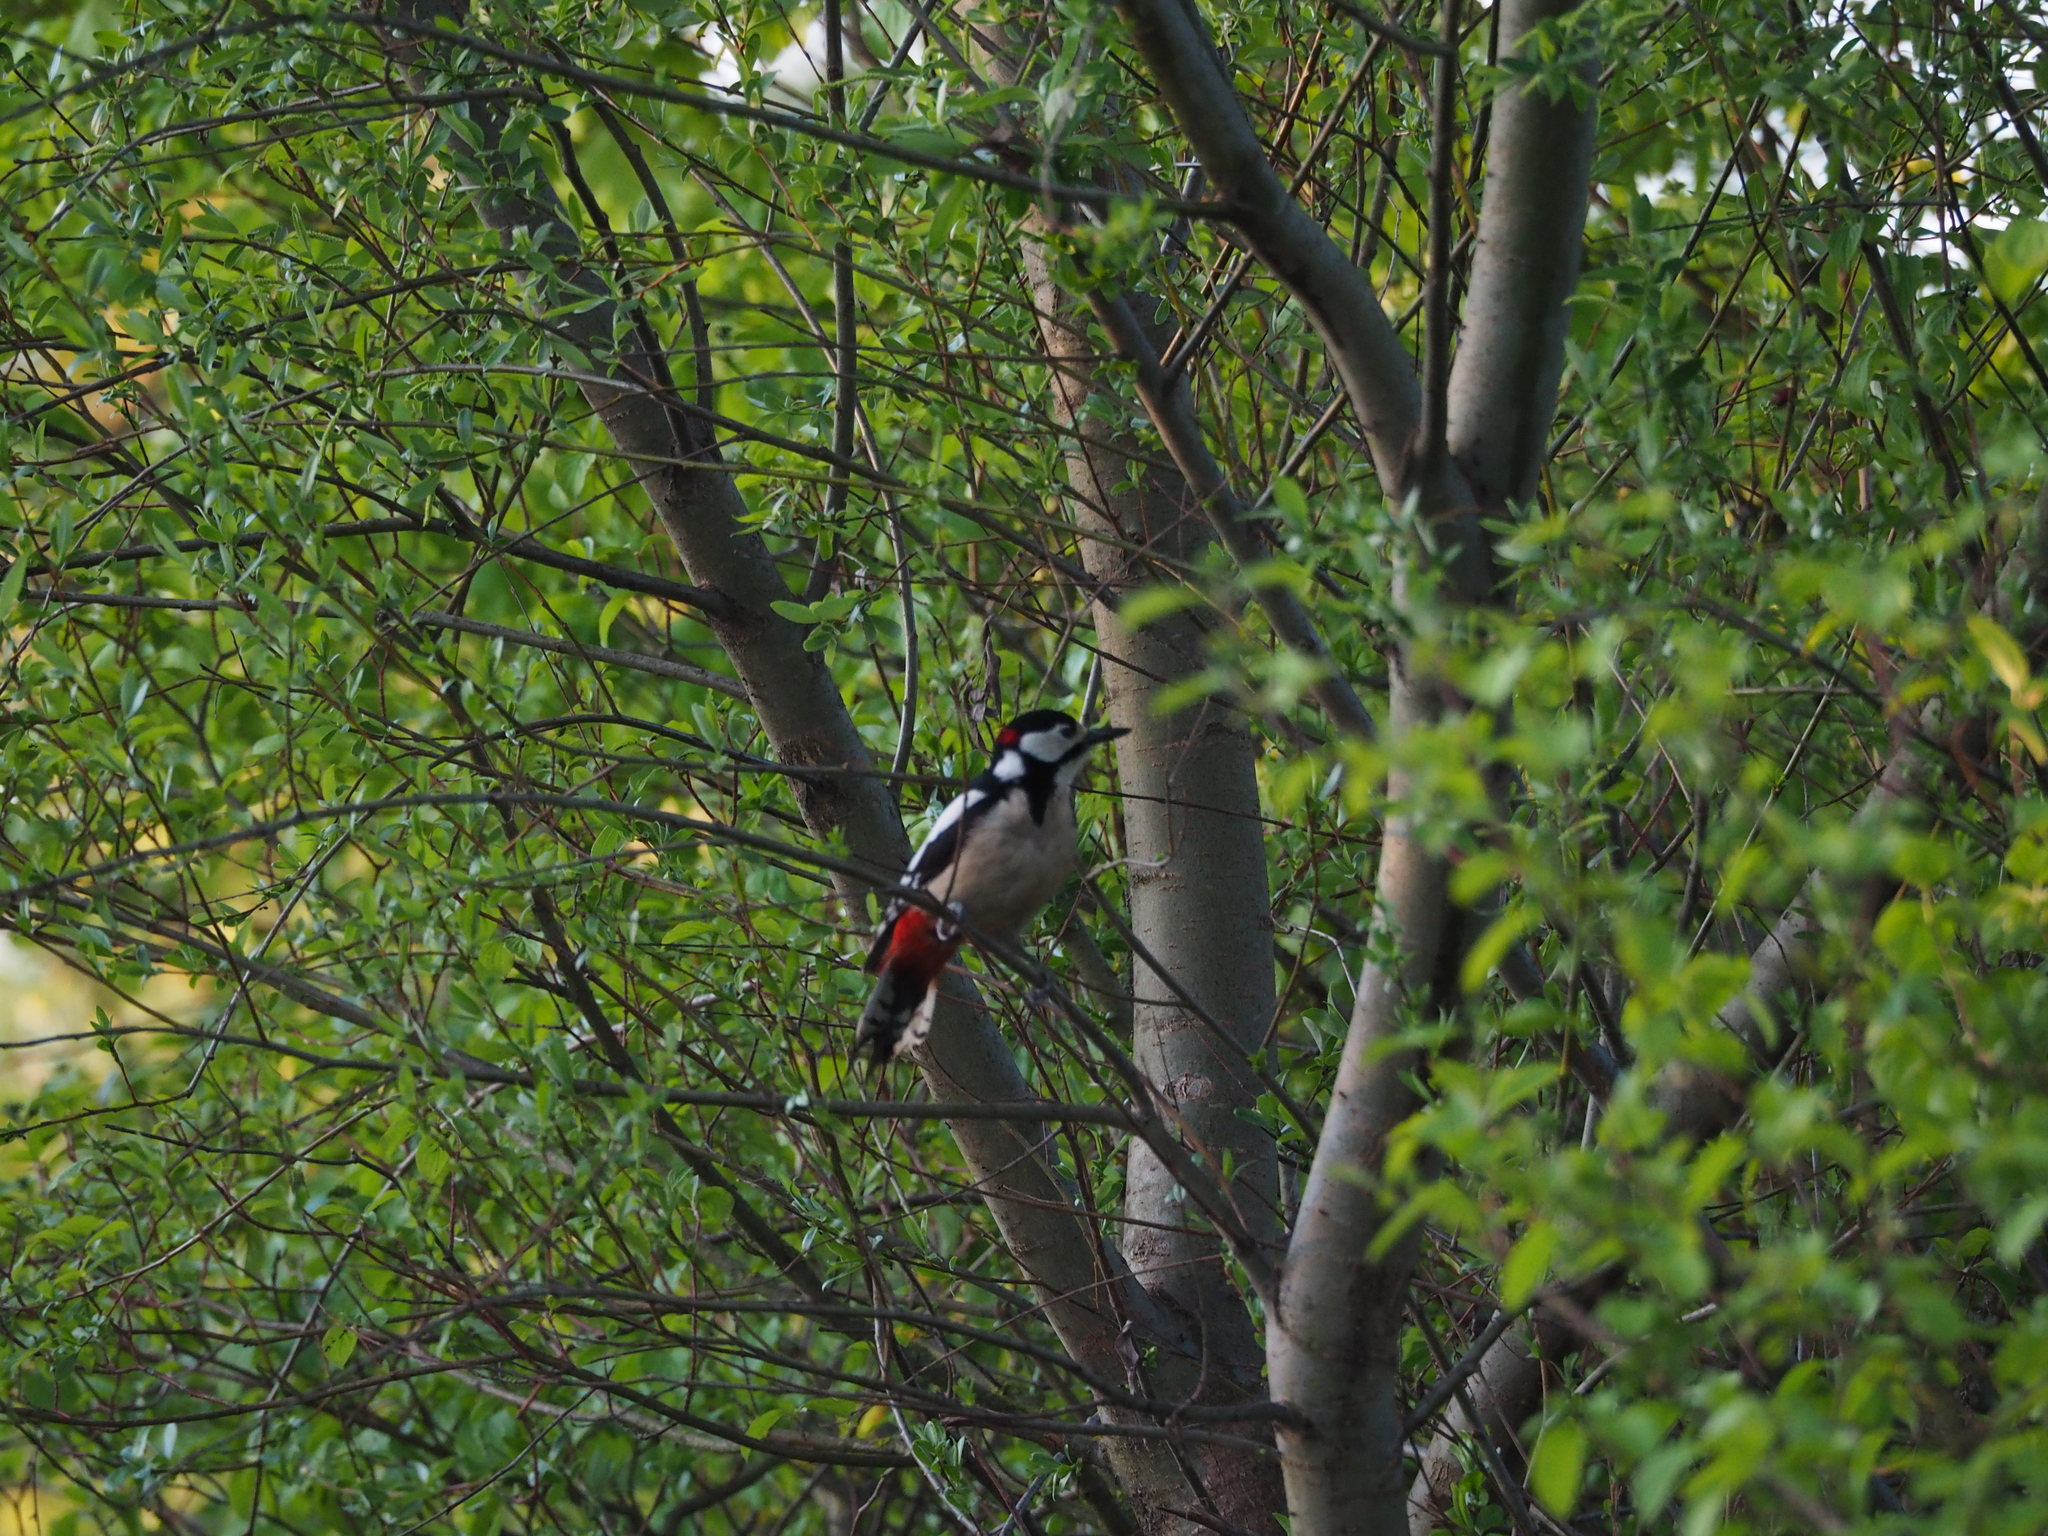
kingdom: Animalia
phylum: Chordata
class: Aves
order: Piciformes
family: Picidae
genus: Dendrocopos
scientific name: Dendrocopos major
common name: Great spotted woodpecker
